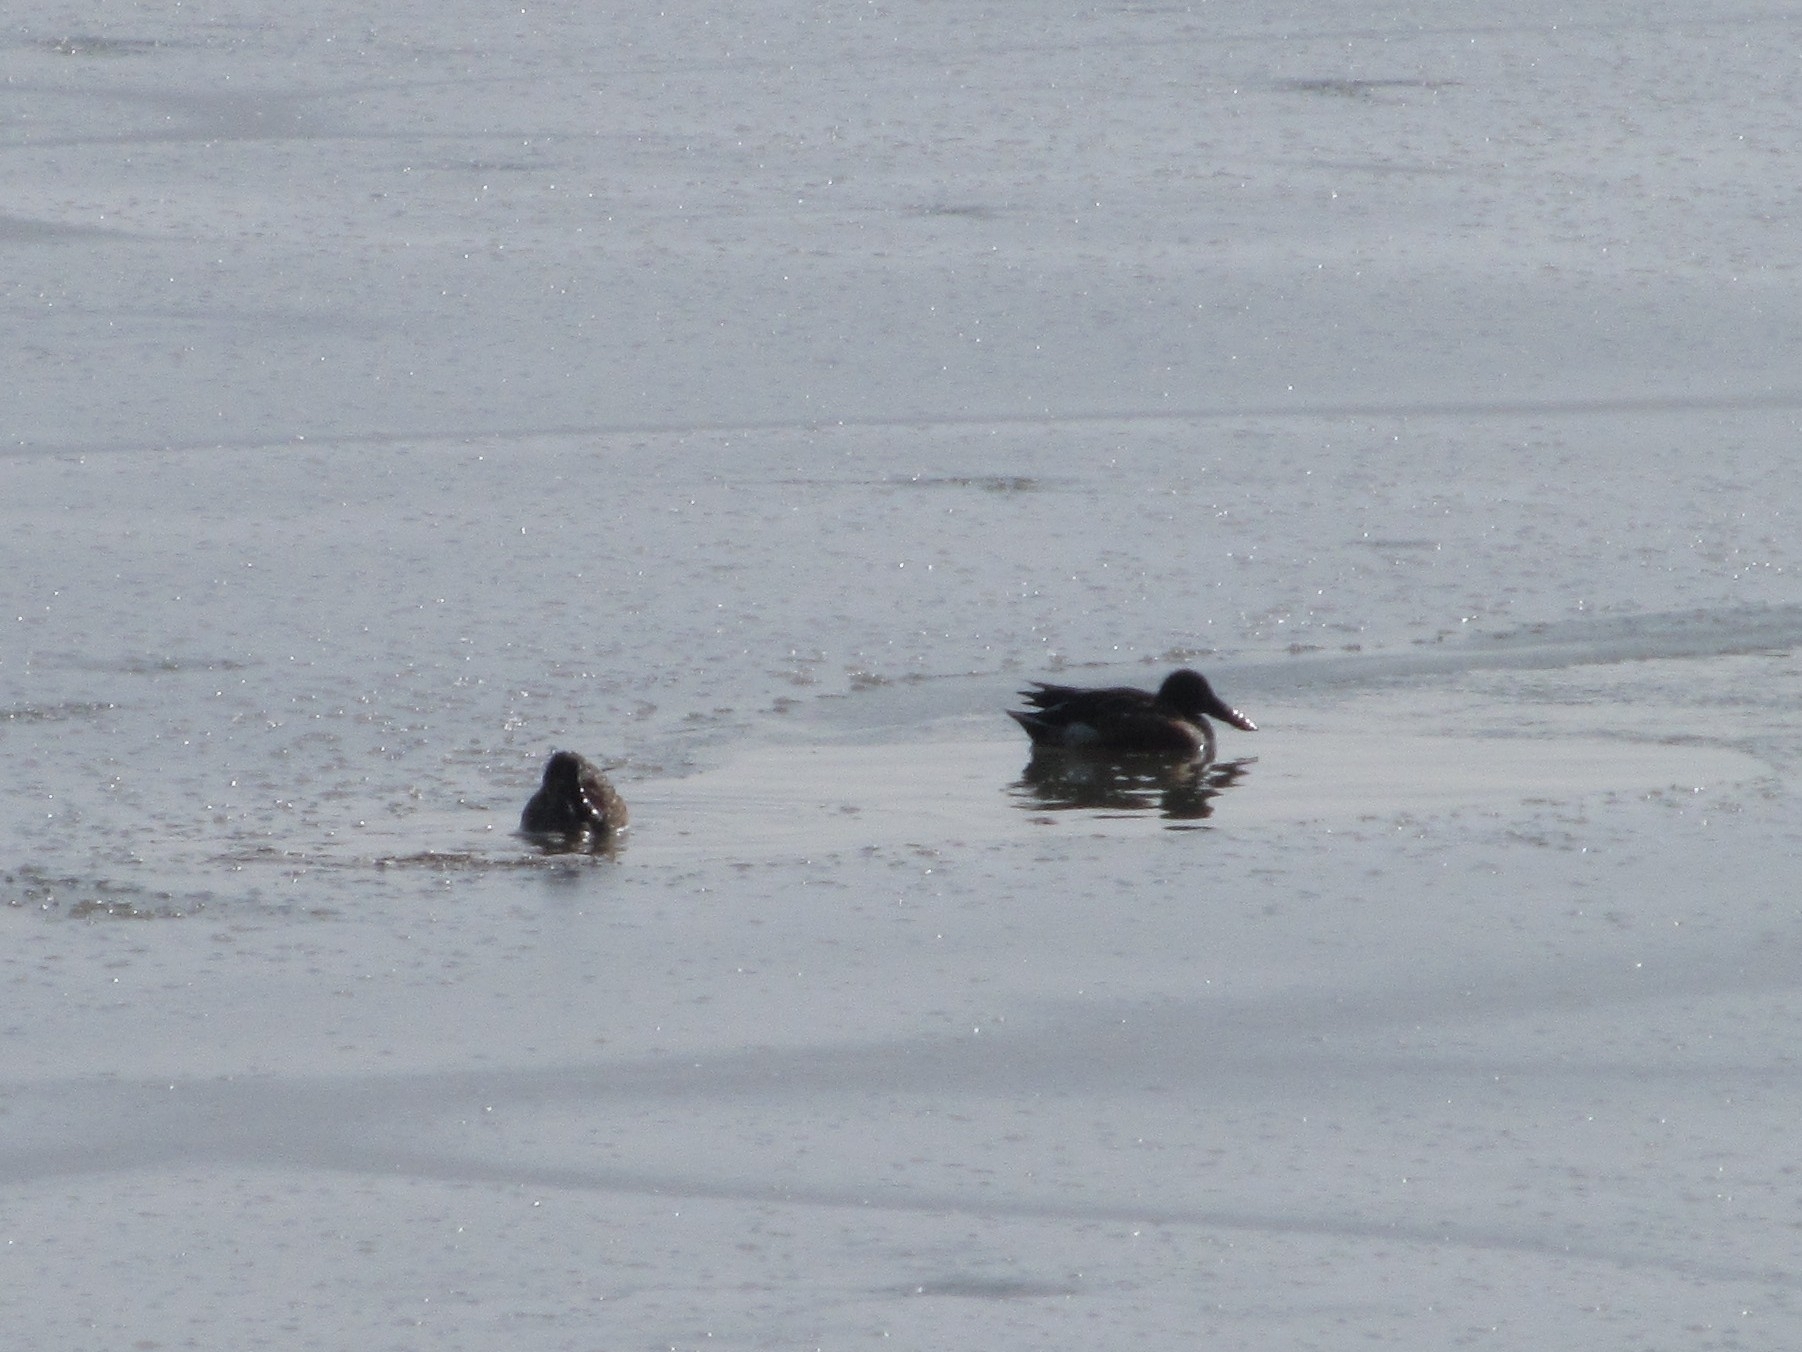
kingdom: Animalia
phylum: Chordata
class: Aves
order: Anseriformes
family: Anatidae
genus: Spatula
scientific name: Spatula clypeata
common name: Northern shoveler
